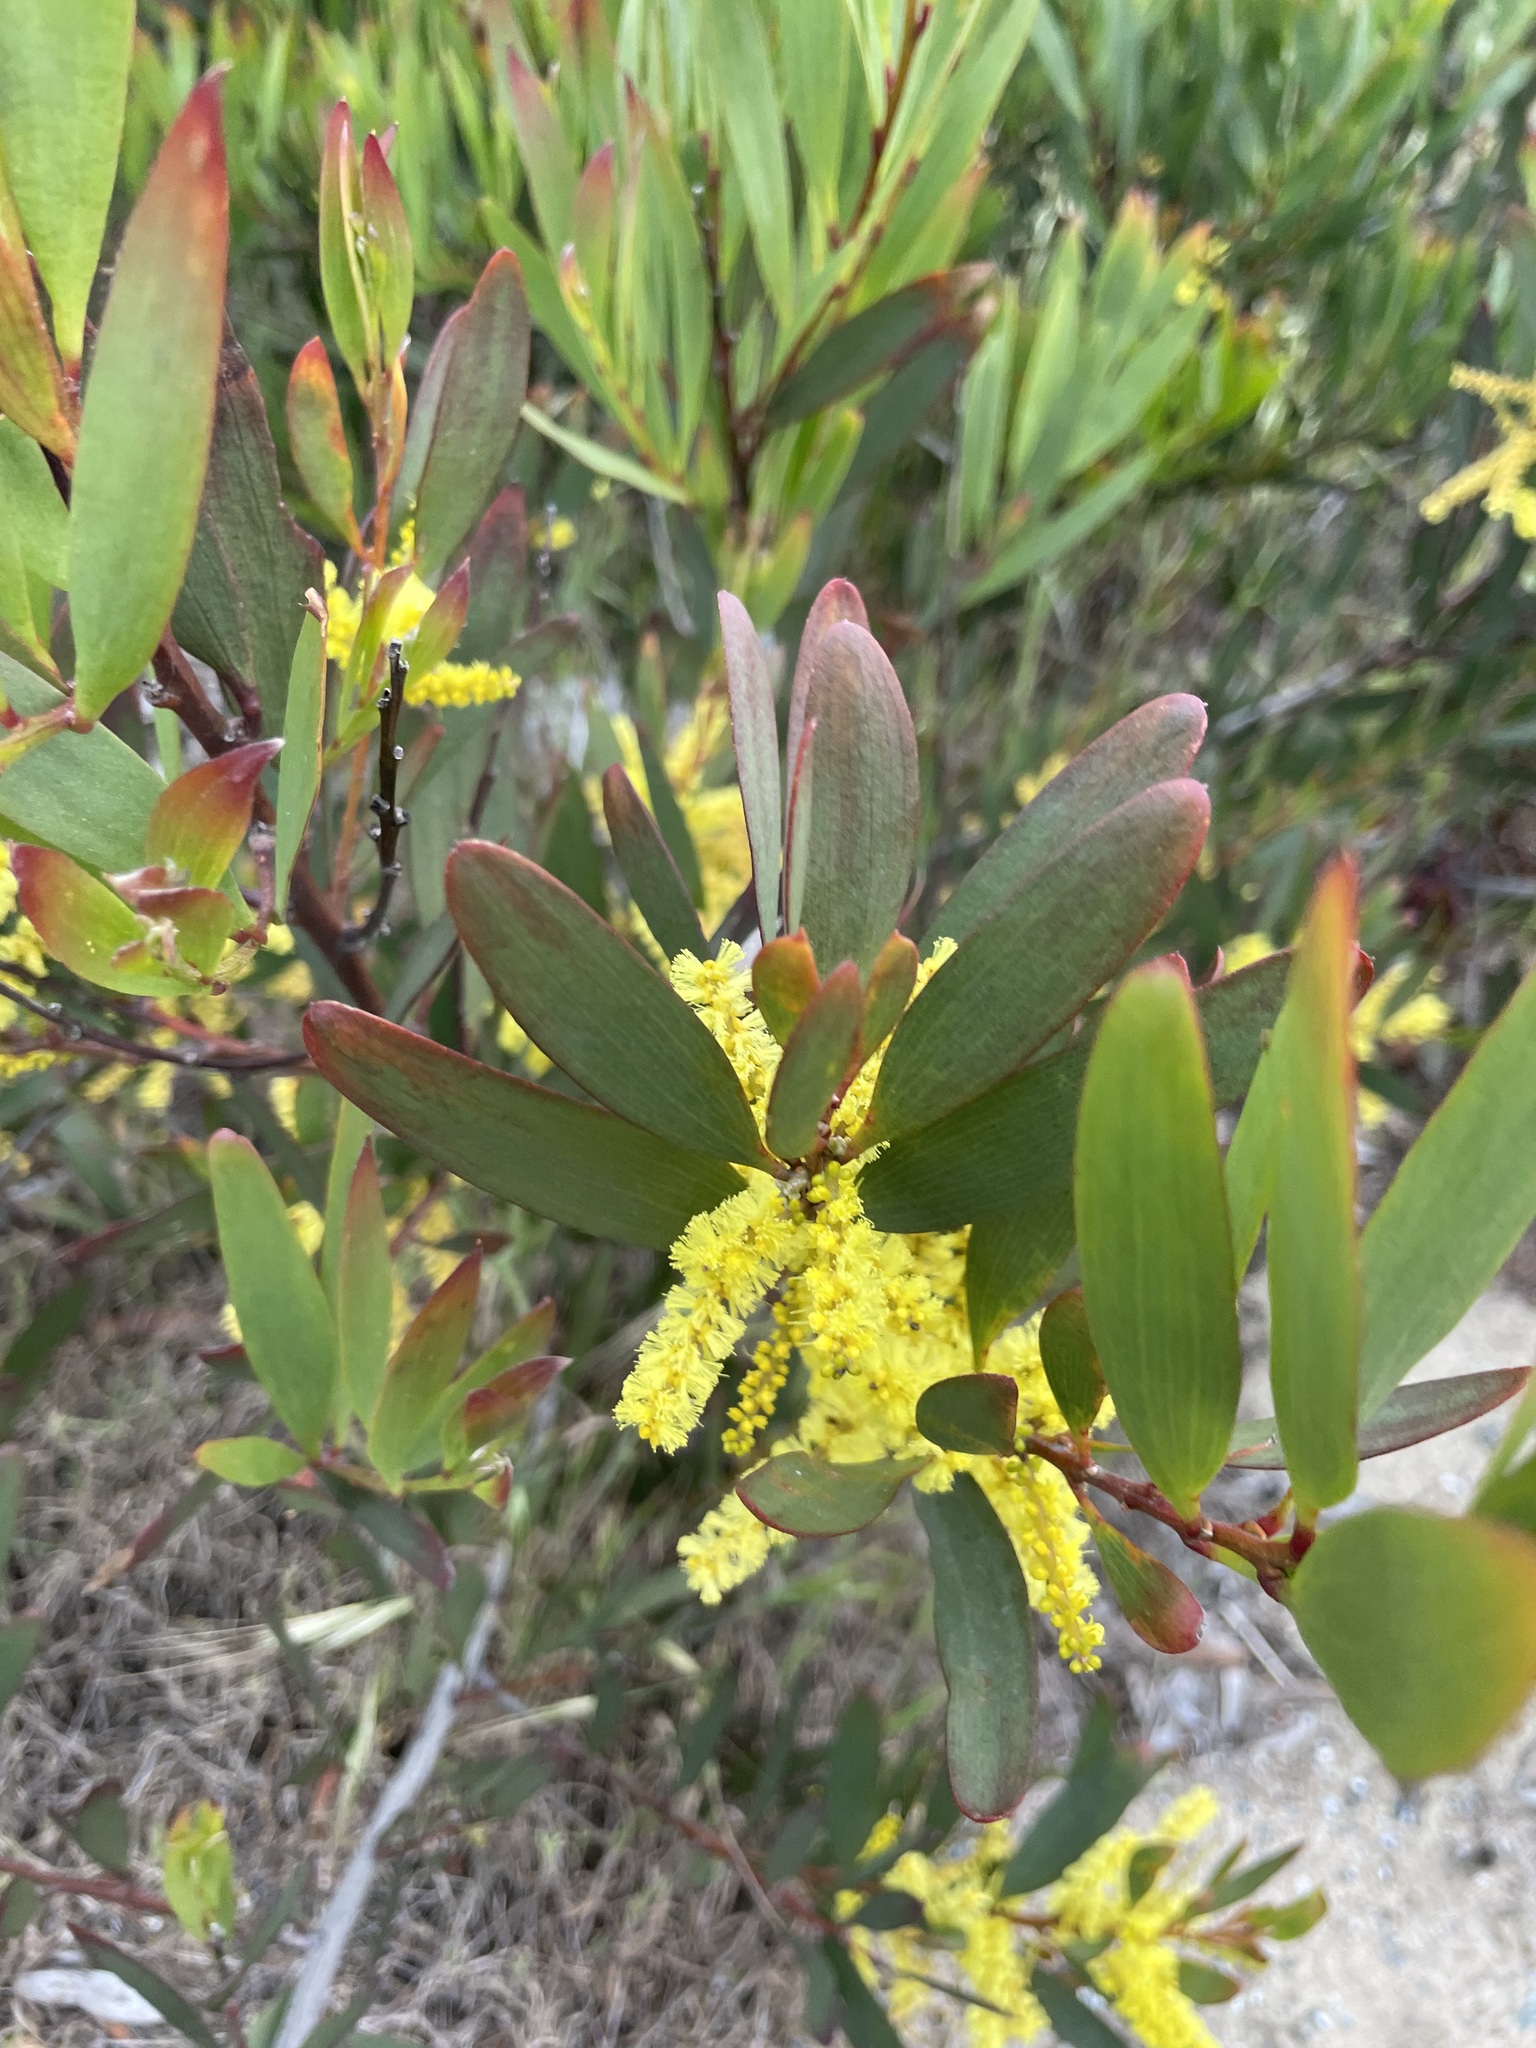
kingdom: Plantae
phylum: Tracheophyta
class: Magnoliopsida
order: Fabales
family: Fabaceae
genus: Acacia
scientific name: Acacia longifolia
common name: Sydney golden wattle
